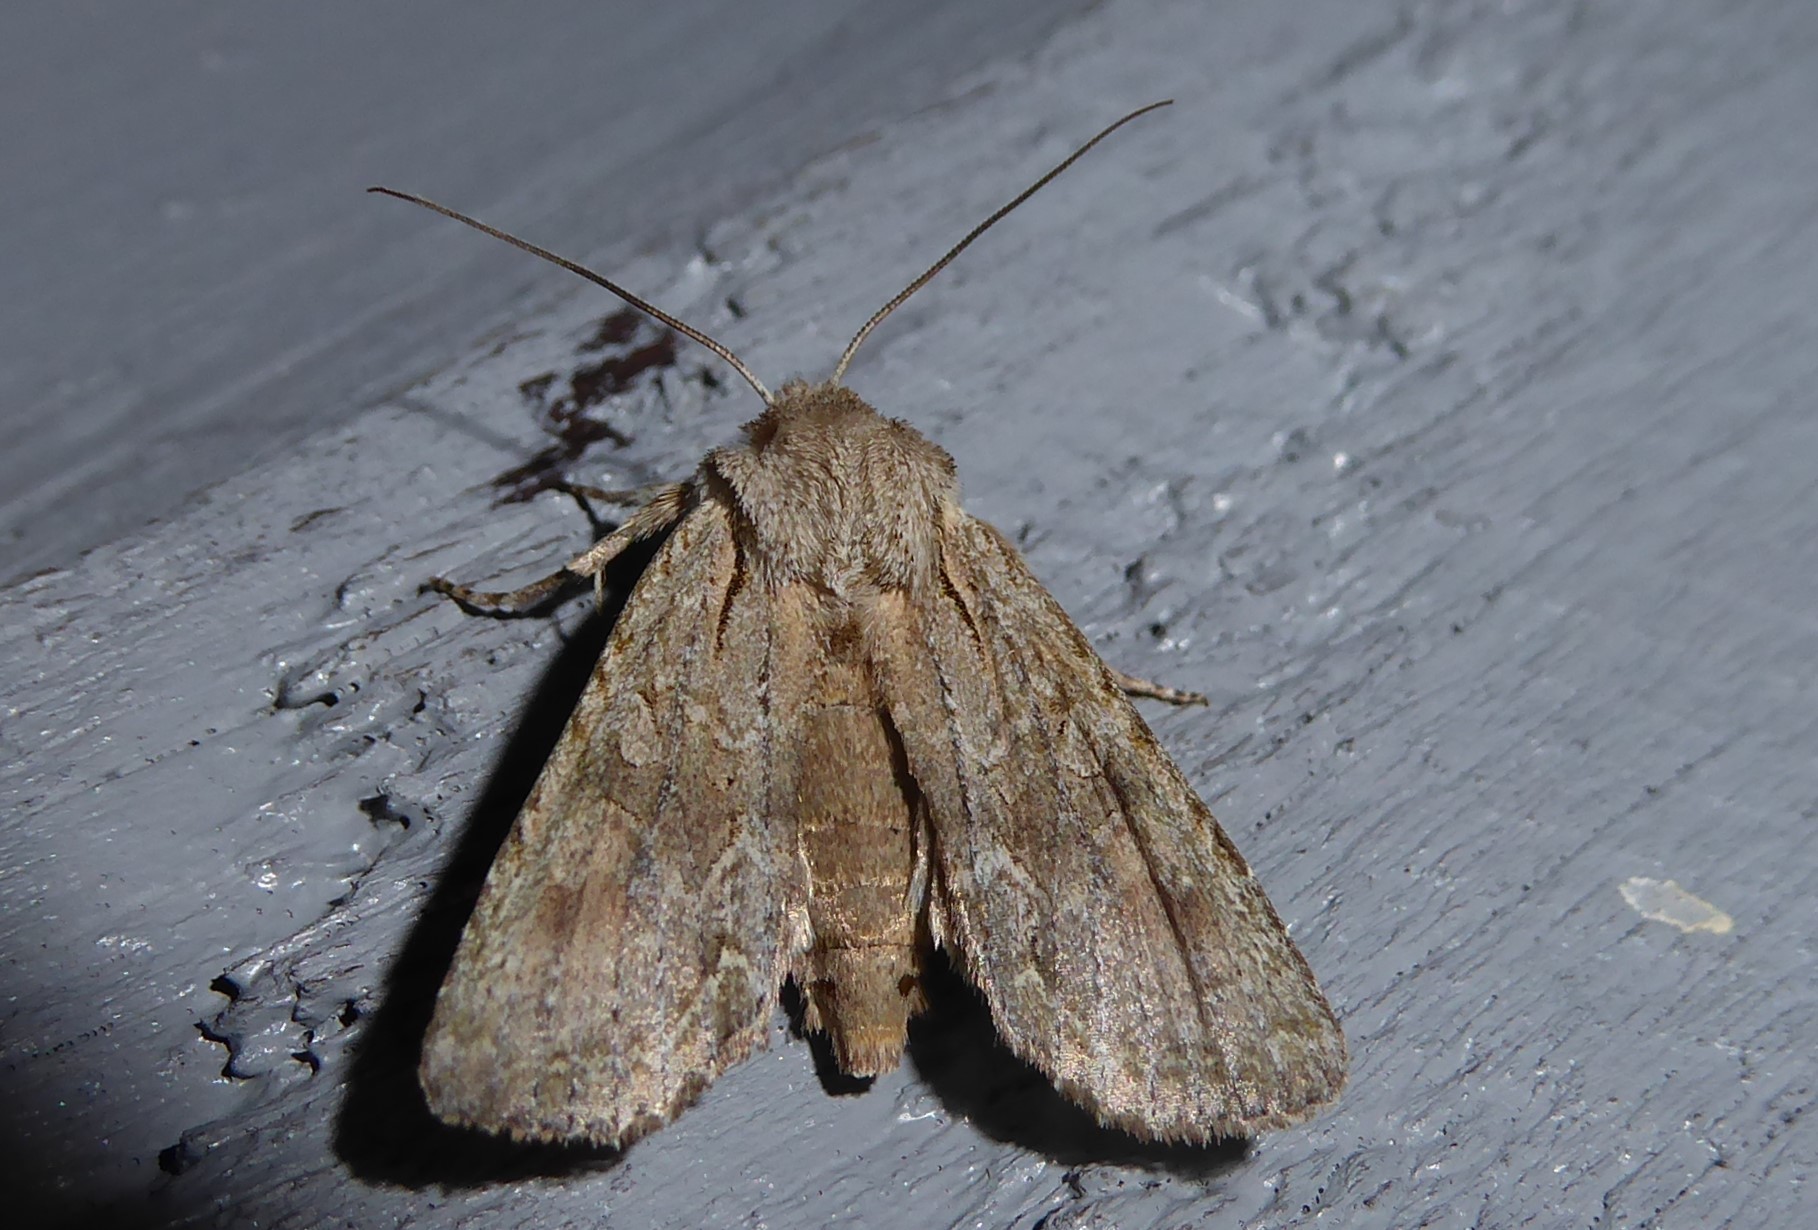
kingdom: Animalia
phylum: Arthropoda
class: Insecta
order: Lepidoptera
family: Noctuidae
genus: Ichneutica
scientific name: Ichneutica mutans
